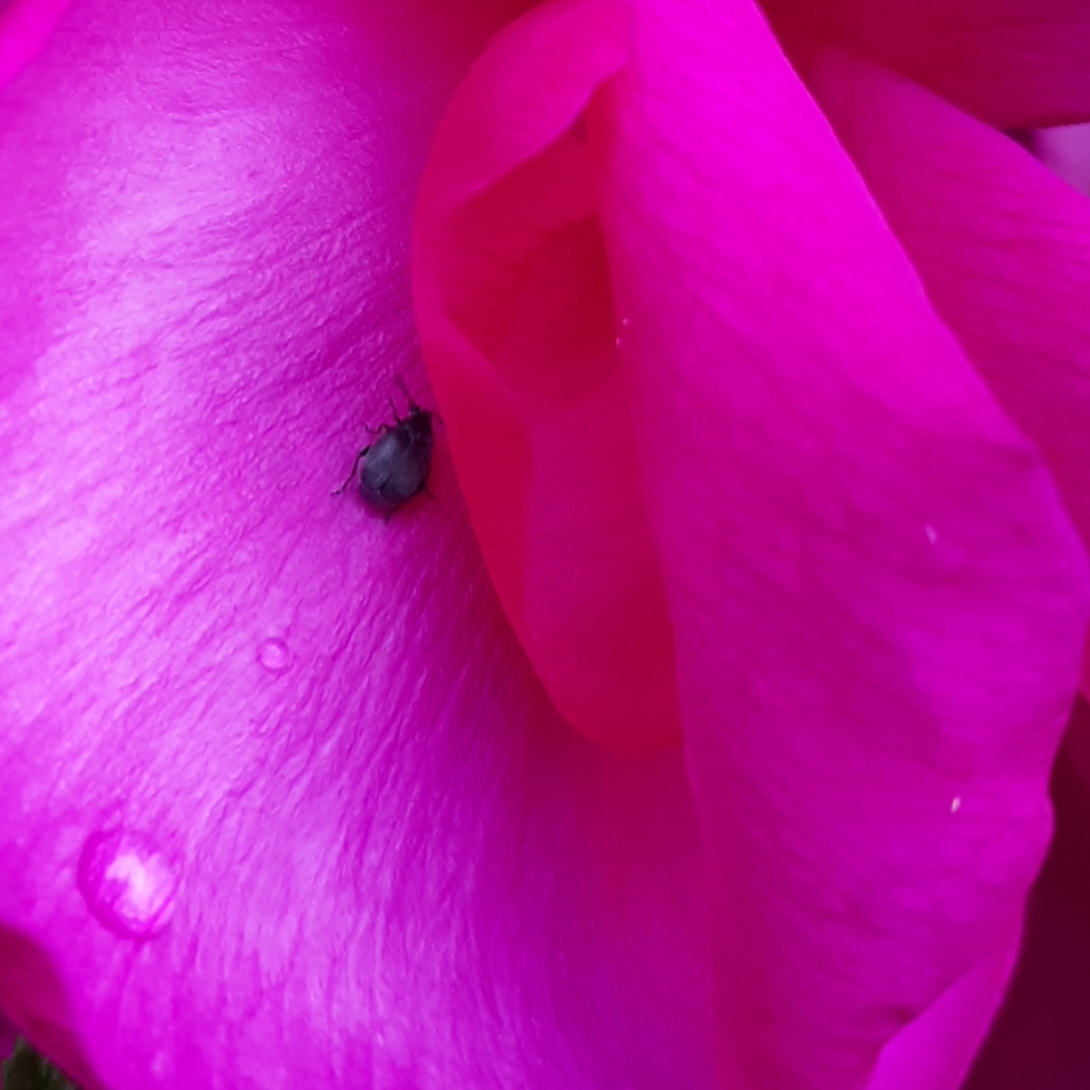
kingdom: Animalia
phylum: Arthropoda
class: Insecta
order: Coleoptera
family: Chrysomelidae
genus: Bruchidius
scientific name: Bruchidius villosus
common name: Scotch broom bruchid
